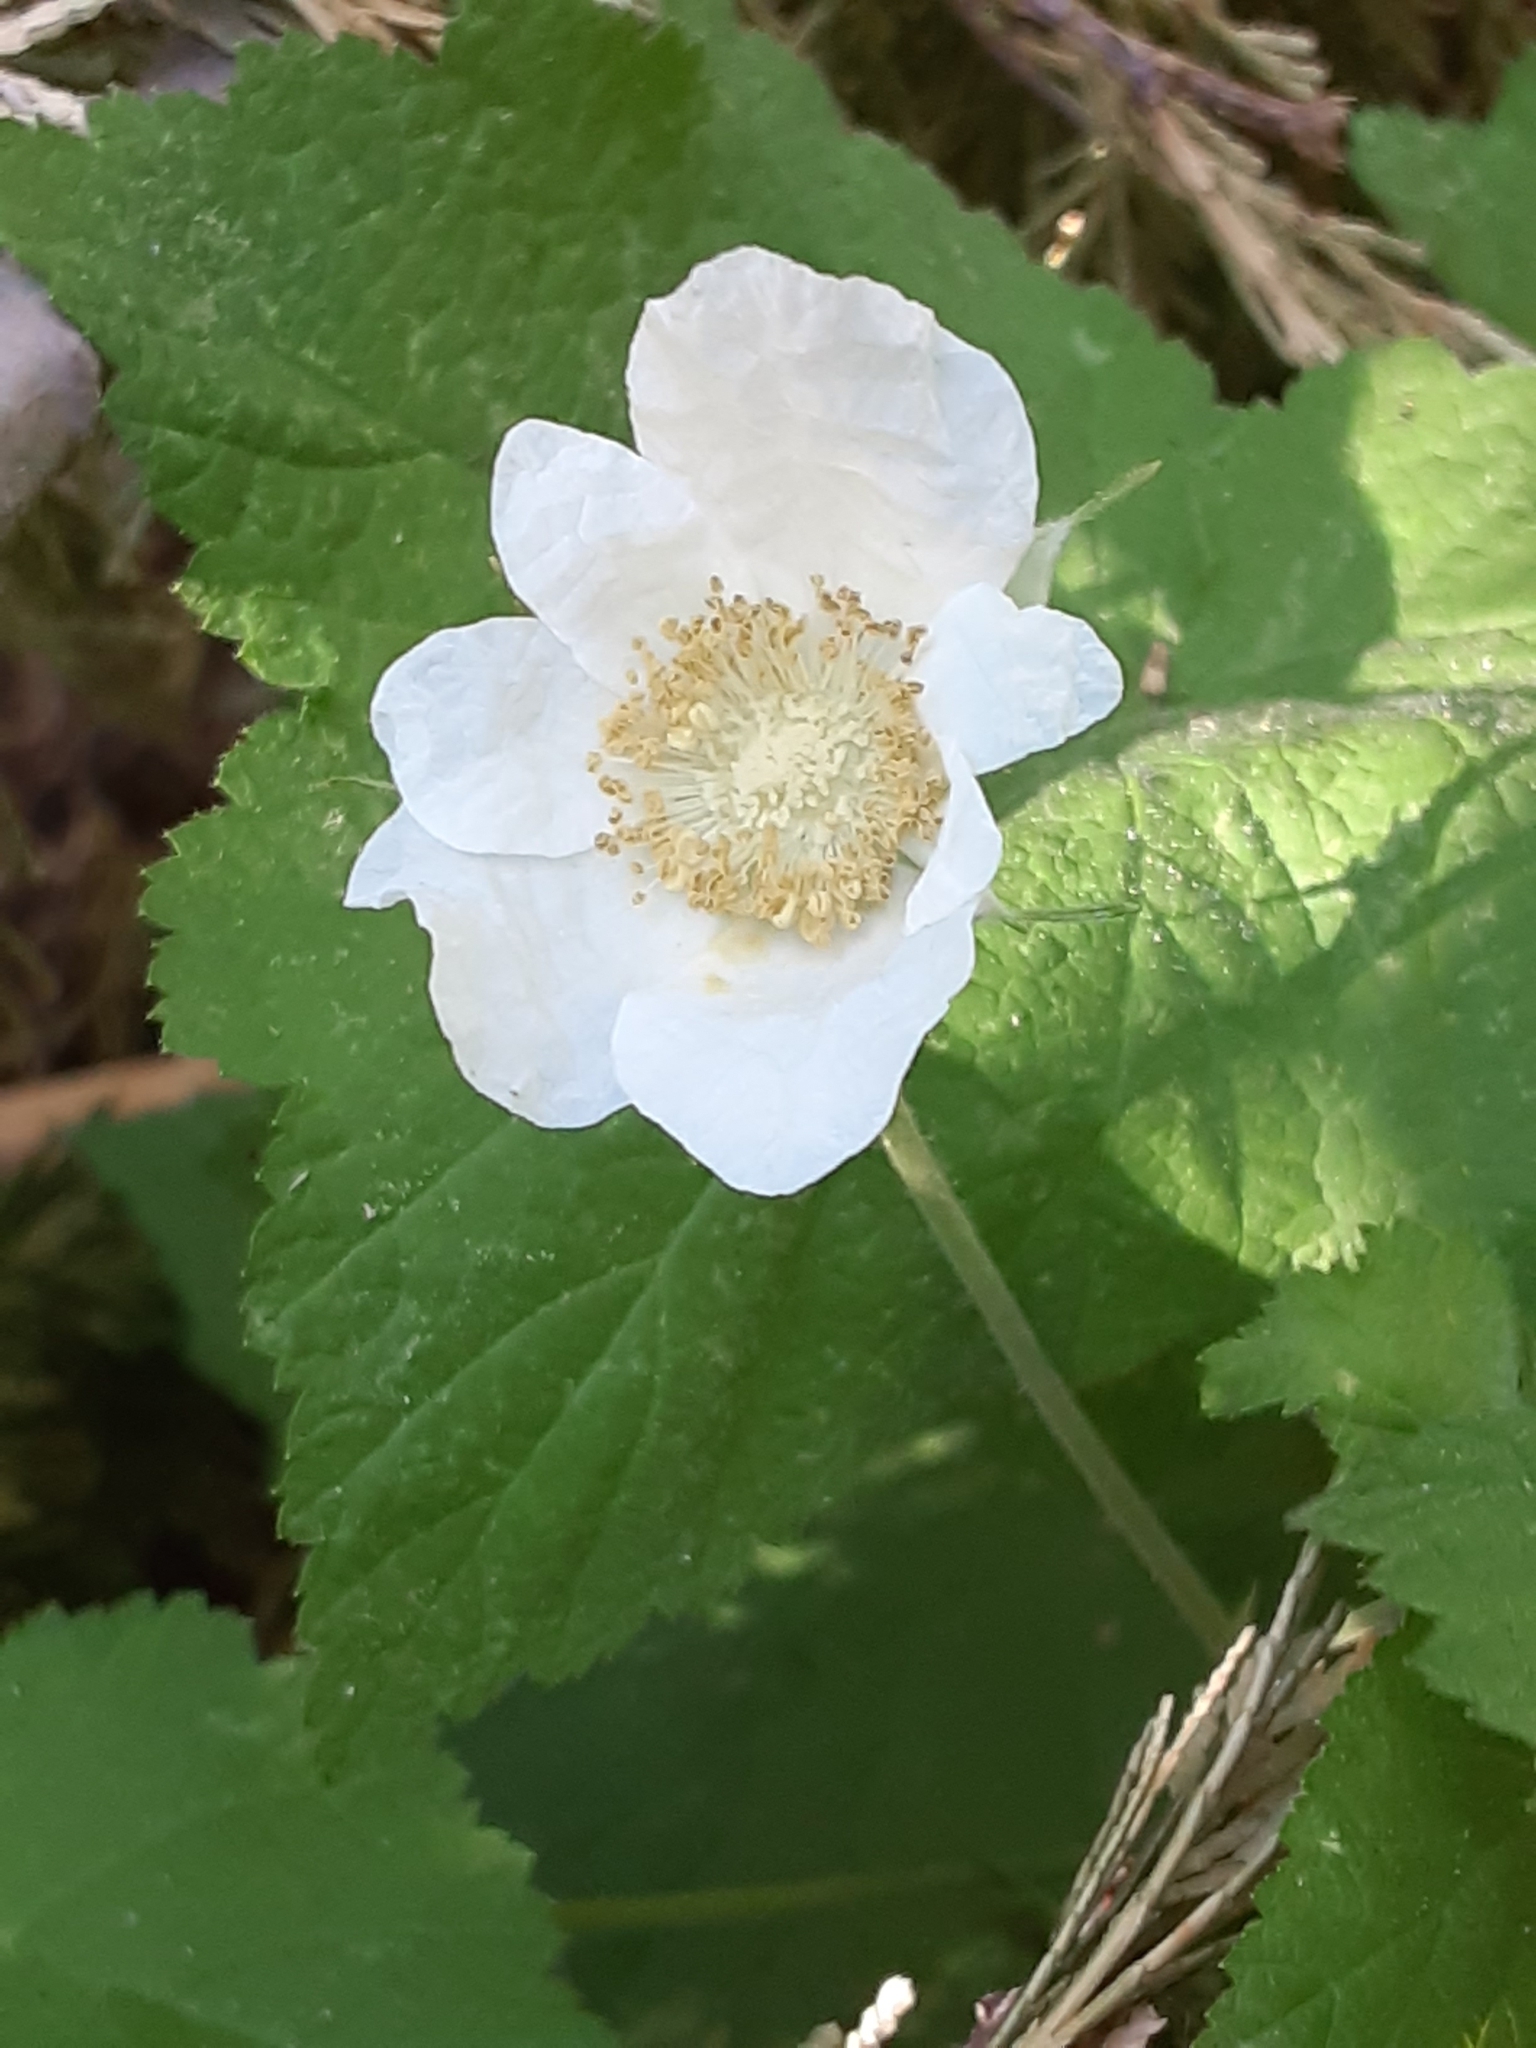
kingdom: Plantae
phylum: Tracheophyta
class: Magnoliopsida
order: Rosales
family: Rosaceae
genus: Rubus
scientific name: Rubus parviflorus
